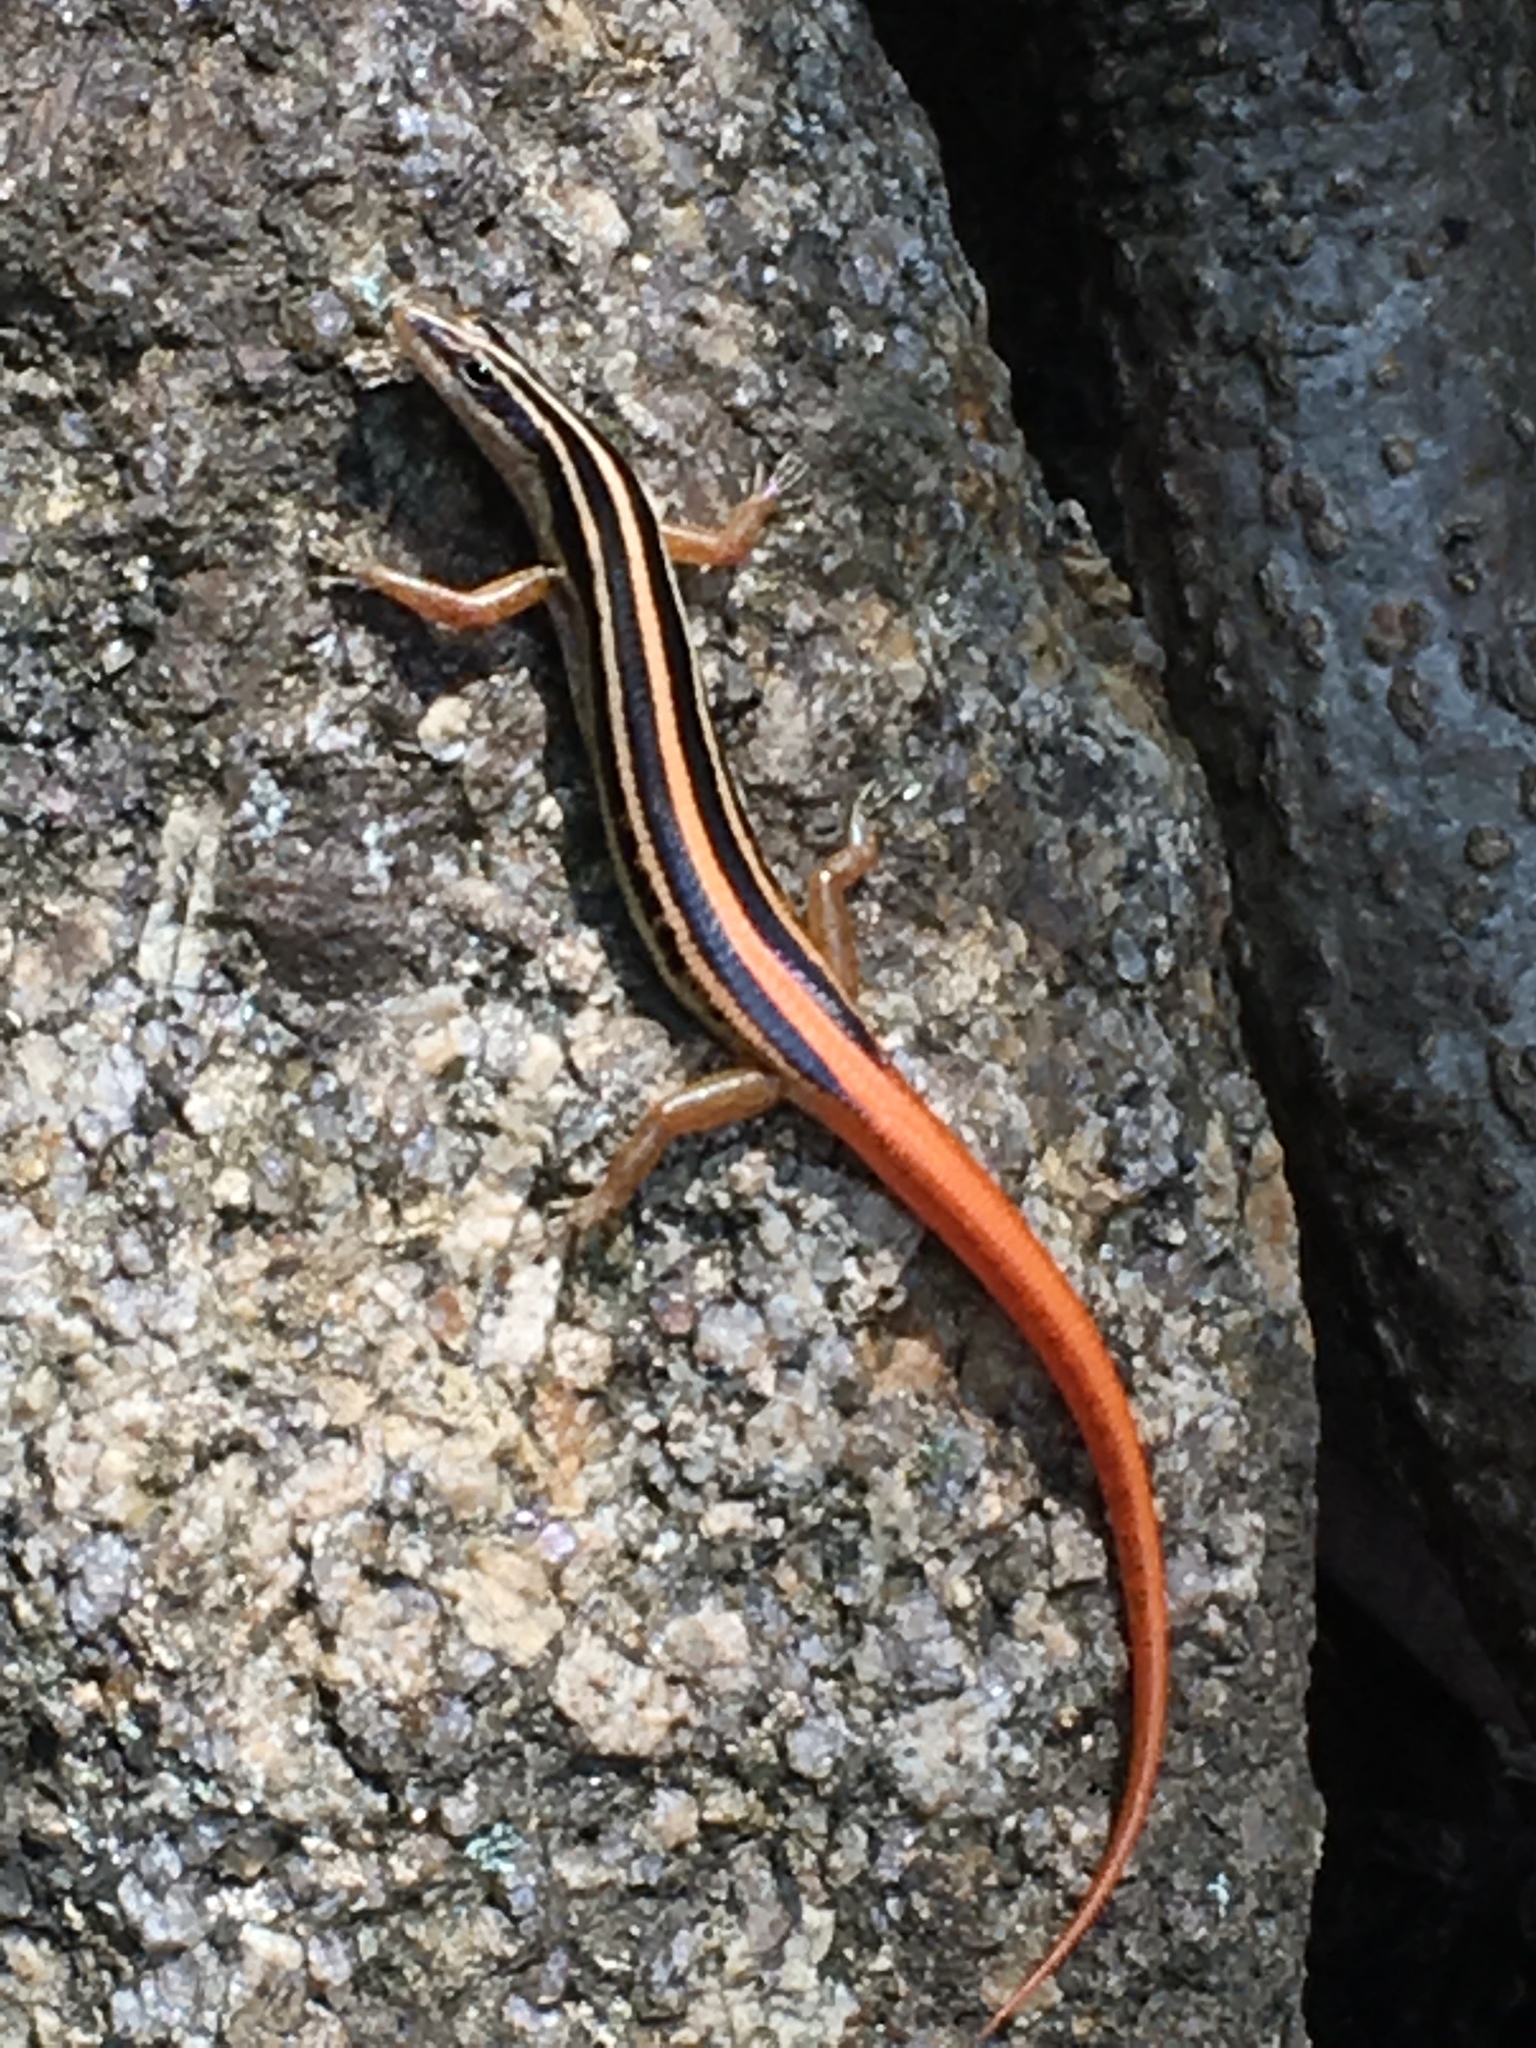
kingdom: Animalia
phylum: Chordata
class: Squamata
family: Scincidae
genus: Lipinia
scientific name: Lipinia microcerca
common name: Banded lipinia
